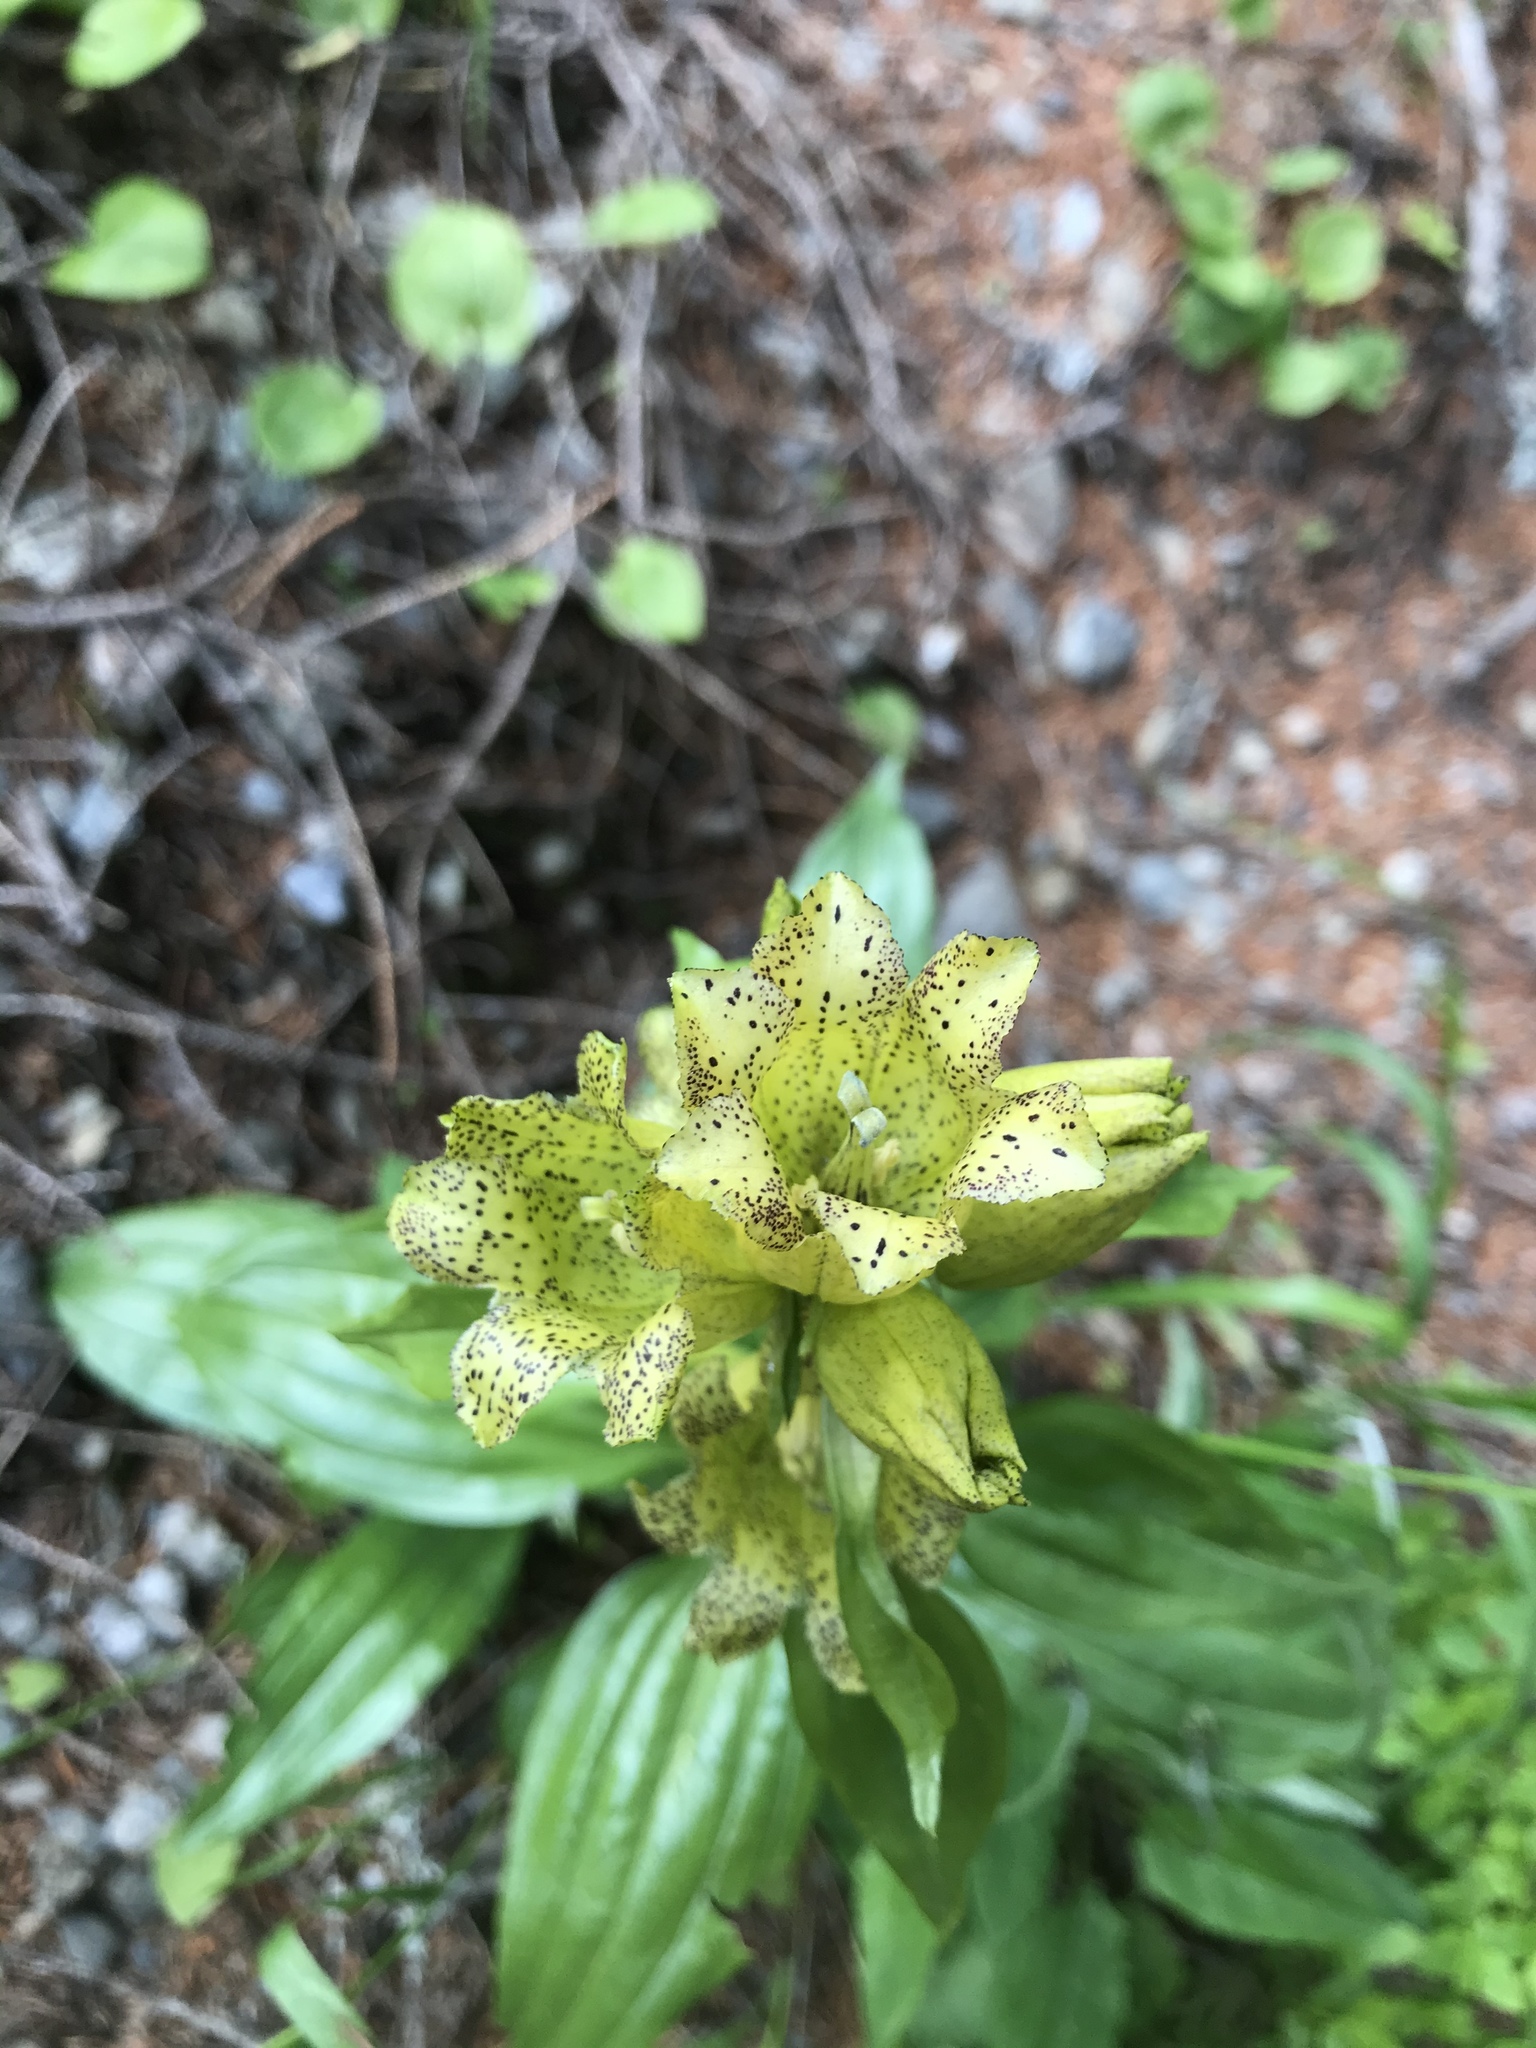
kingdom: Plantae
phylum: Tracheophyta
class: Magnoliopsida
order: Gentianales
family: Gentianaceae
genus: Gentiana
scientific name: Gentiana punctata
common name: Spotted gentian
